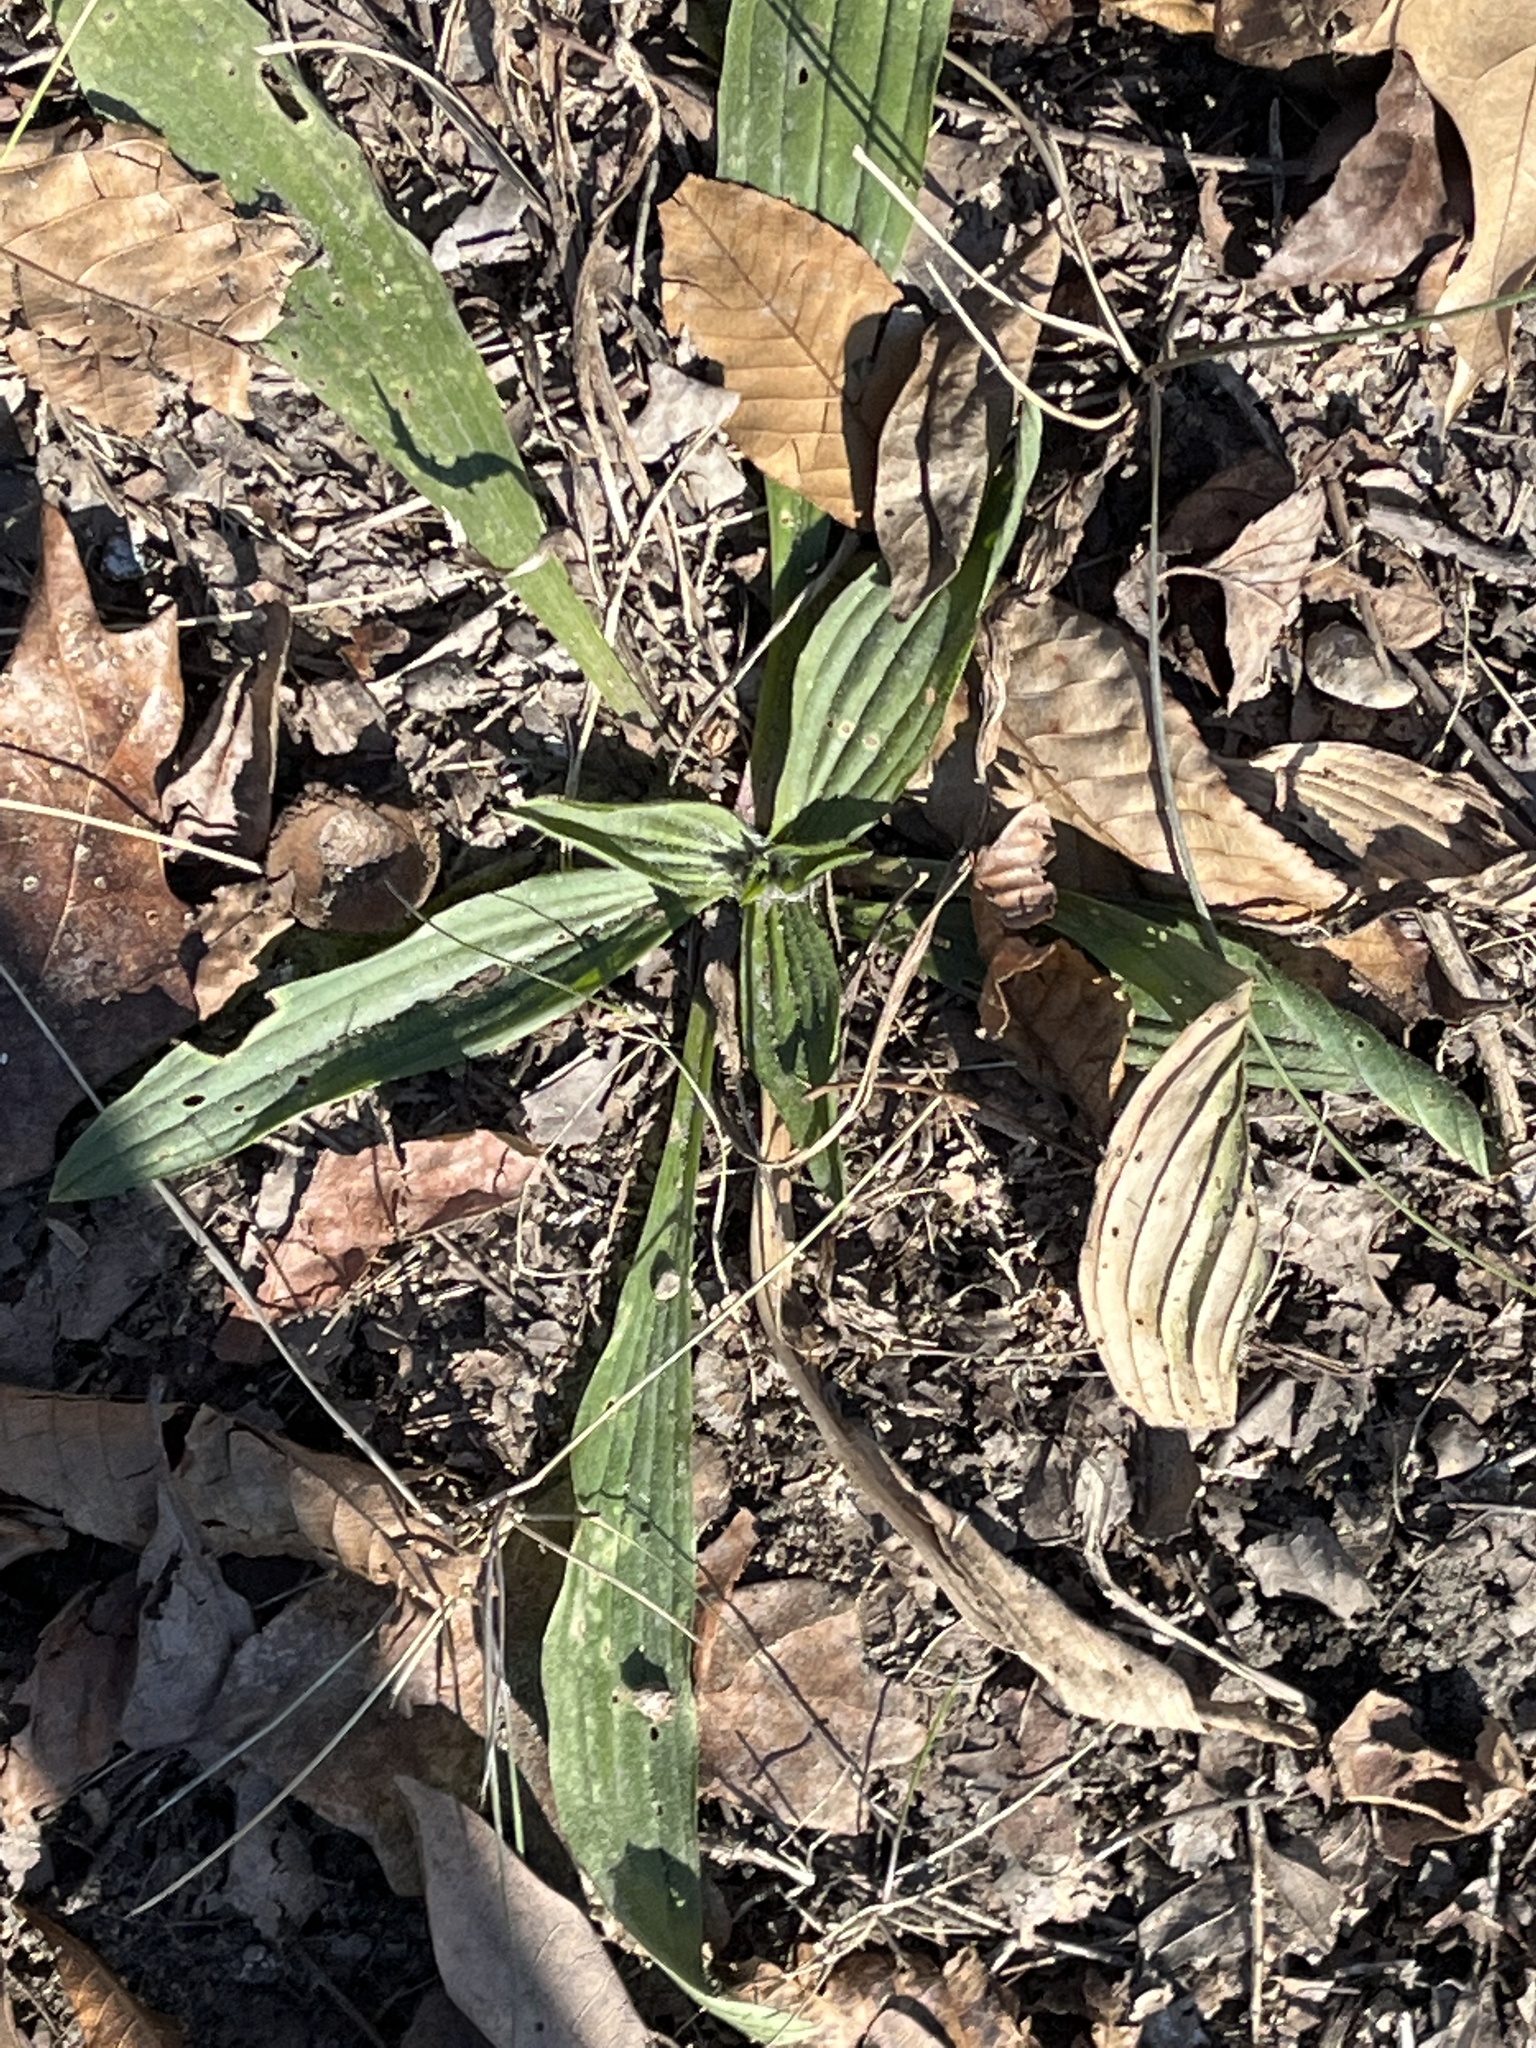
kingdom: Plantae
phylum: Tracheophyta
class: Magnoliopsida
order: Lamiales
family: Plantaginaceae
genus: Plantago
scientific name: Plantago lanceolata
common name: Ribwort plantain
